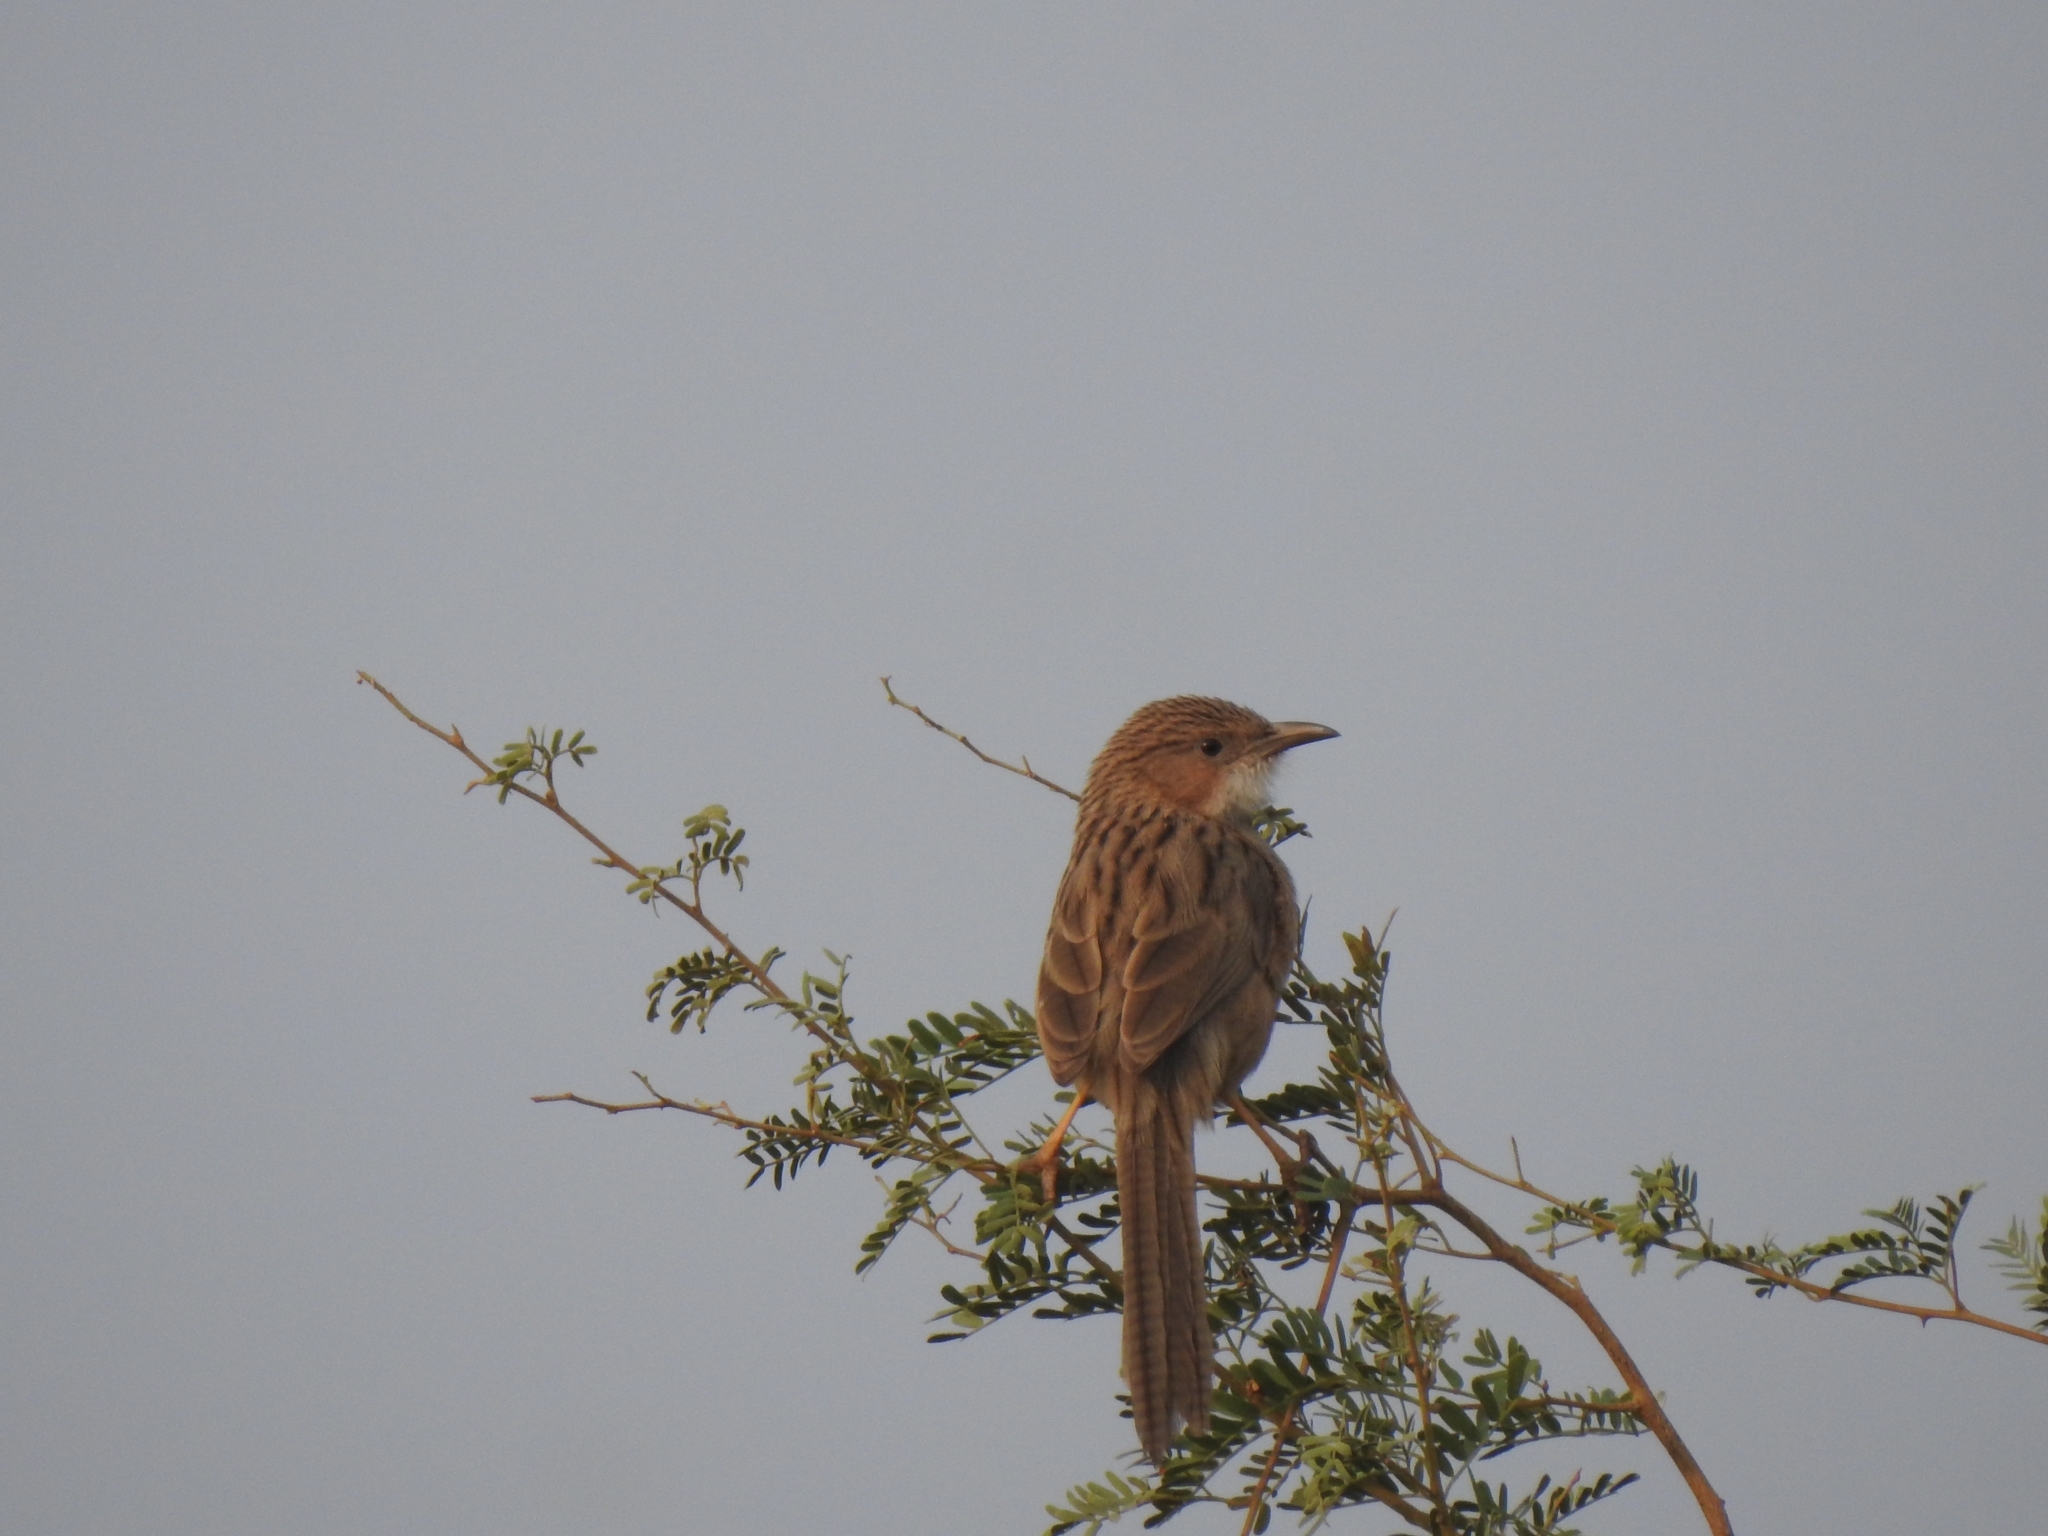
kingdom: Animalia
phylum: Chordata
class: Aves
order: Passeriformes
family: Leiothrichidae
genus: Turdoides
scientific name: Turdoides caudata
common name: Common babbler
